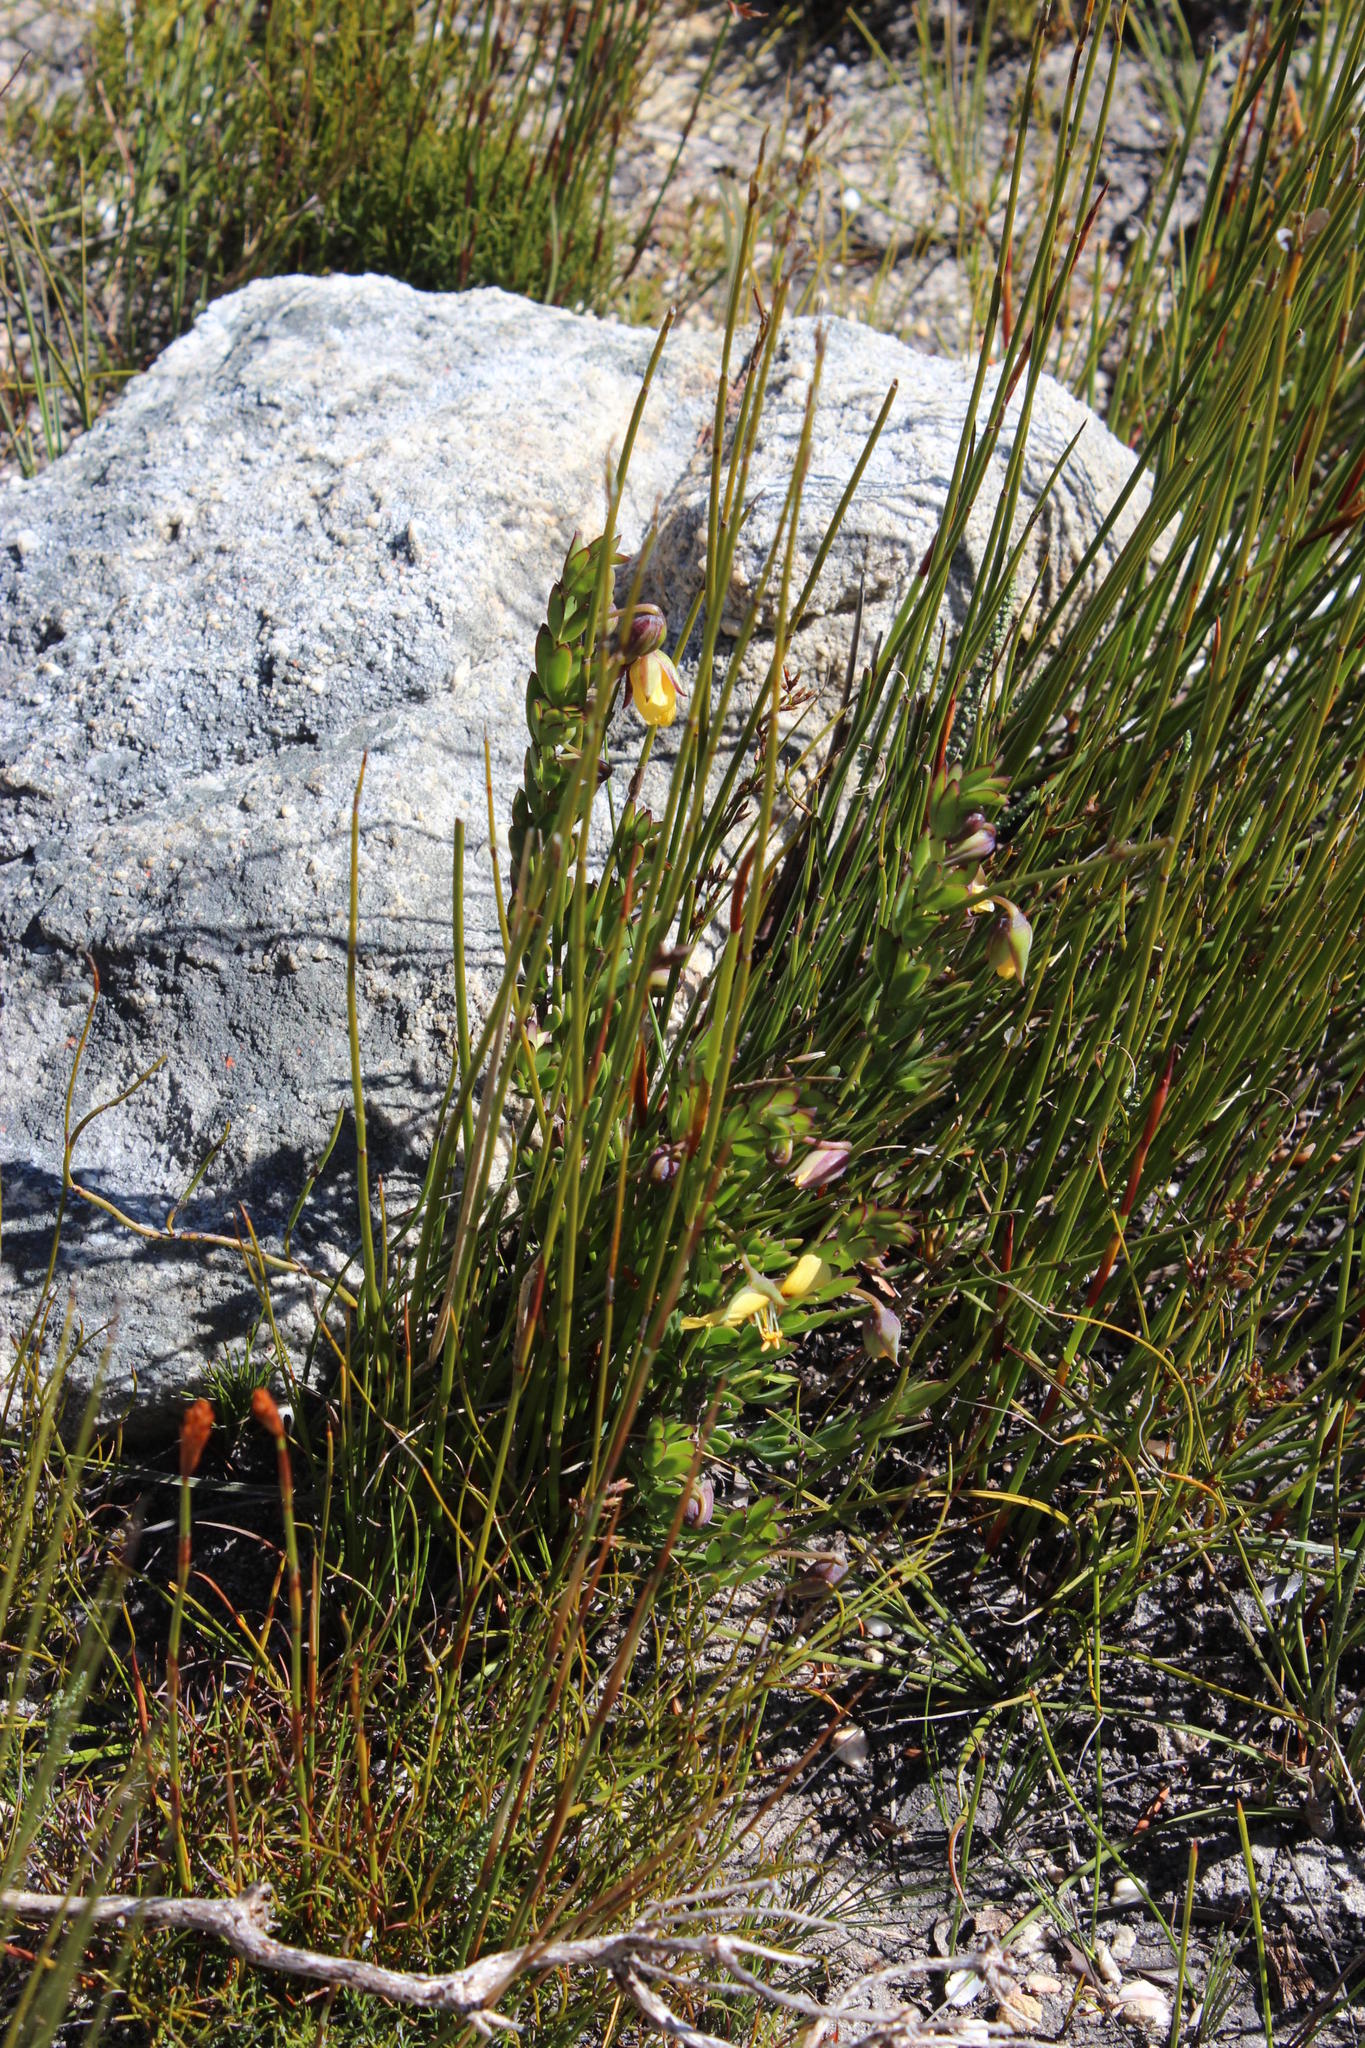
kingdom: Plantae
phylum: Tracheophyta
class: Magnoliopsida
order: Zygophyllales
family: Zygophyllaceae
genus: Roepera
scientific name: Roepera fulva
